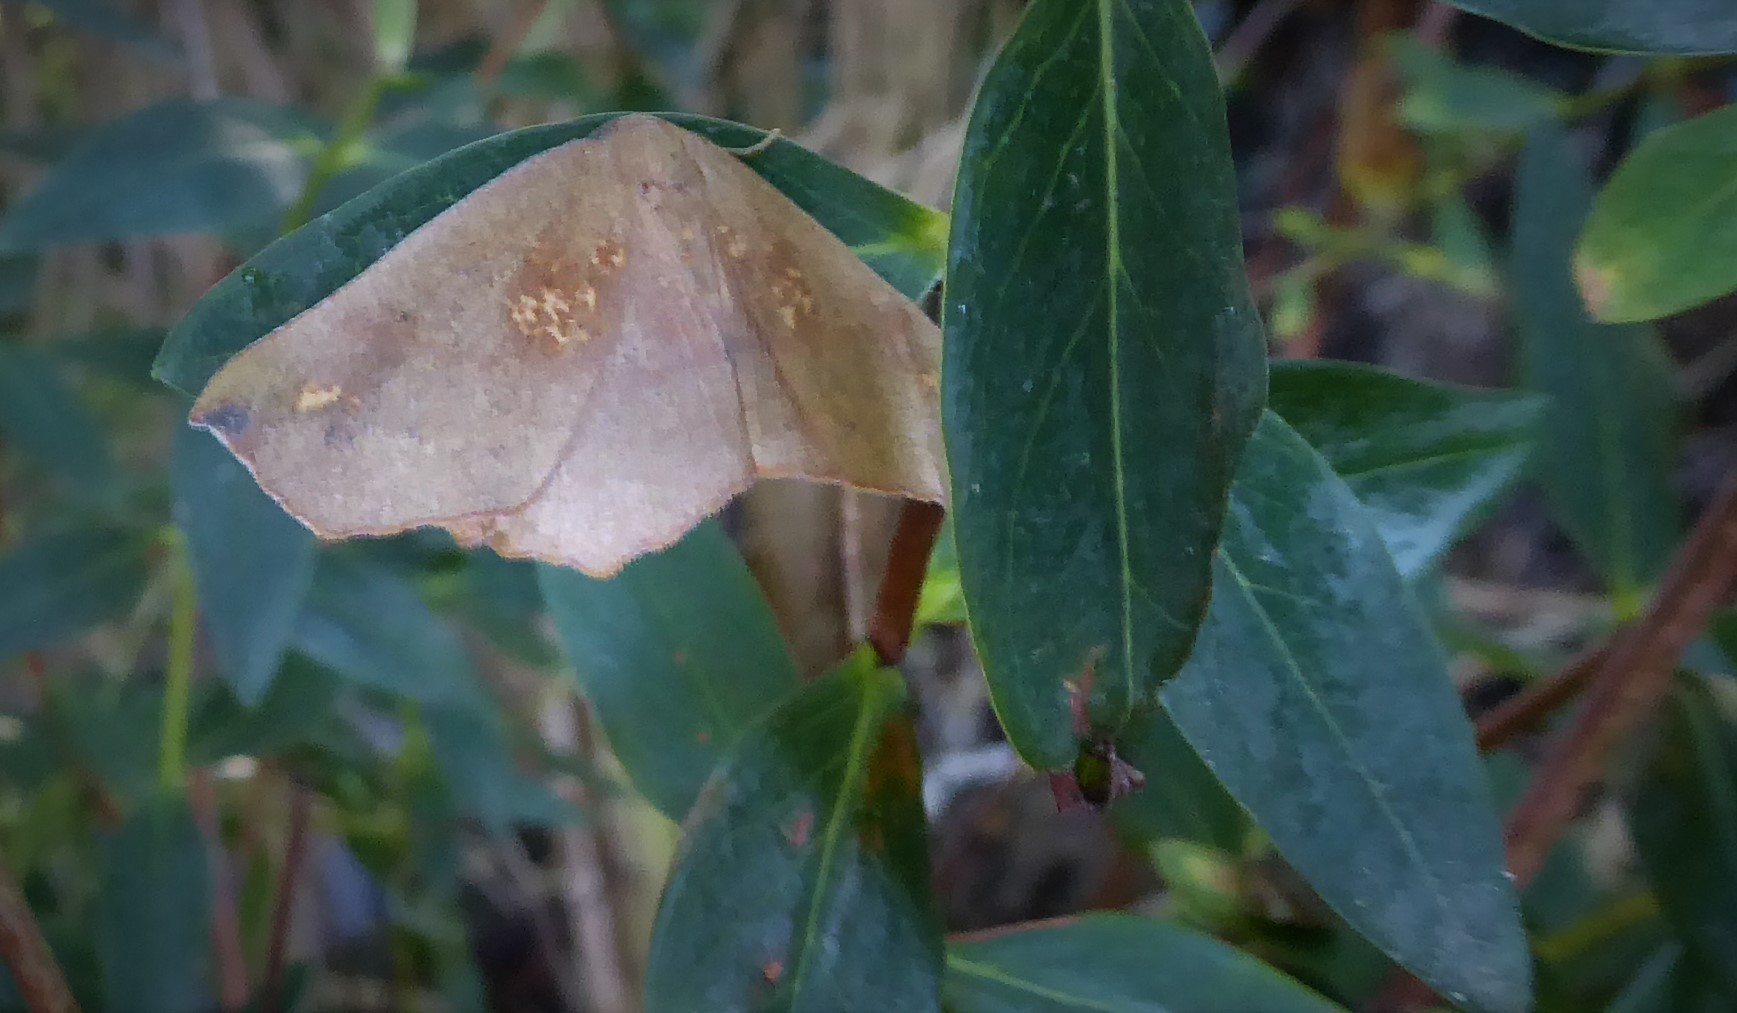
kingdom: Animalia
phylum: Arthropoda
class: Insecta
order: Lepidoptera
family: Geometridae
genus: Xyridacma
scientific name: Xyridacma ustaria
